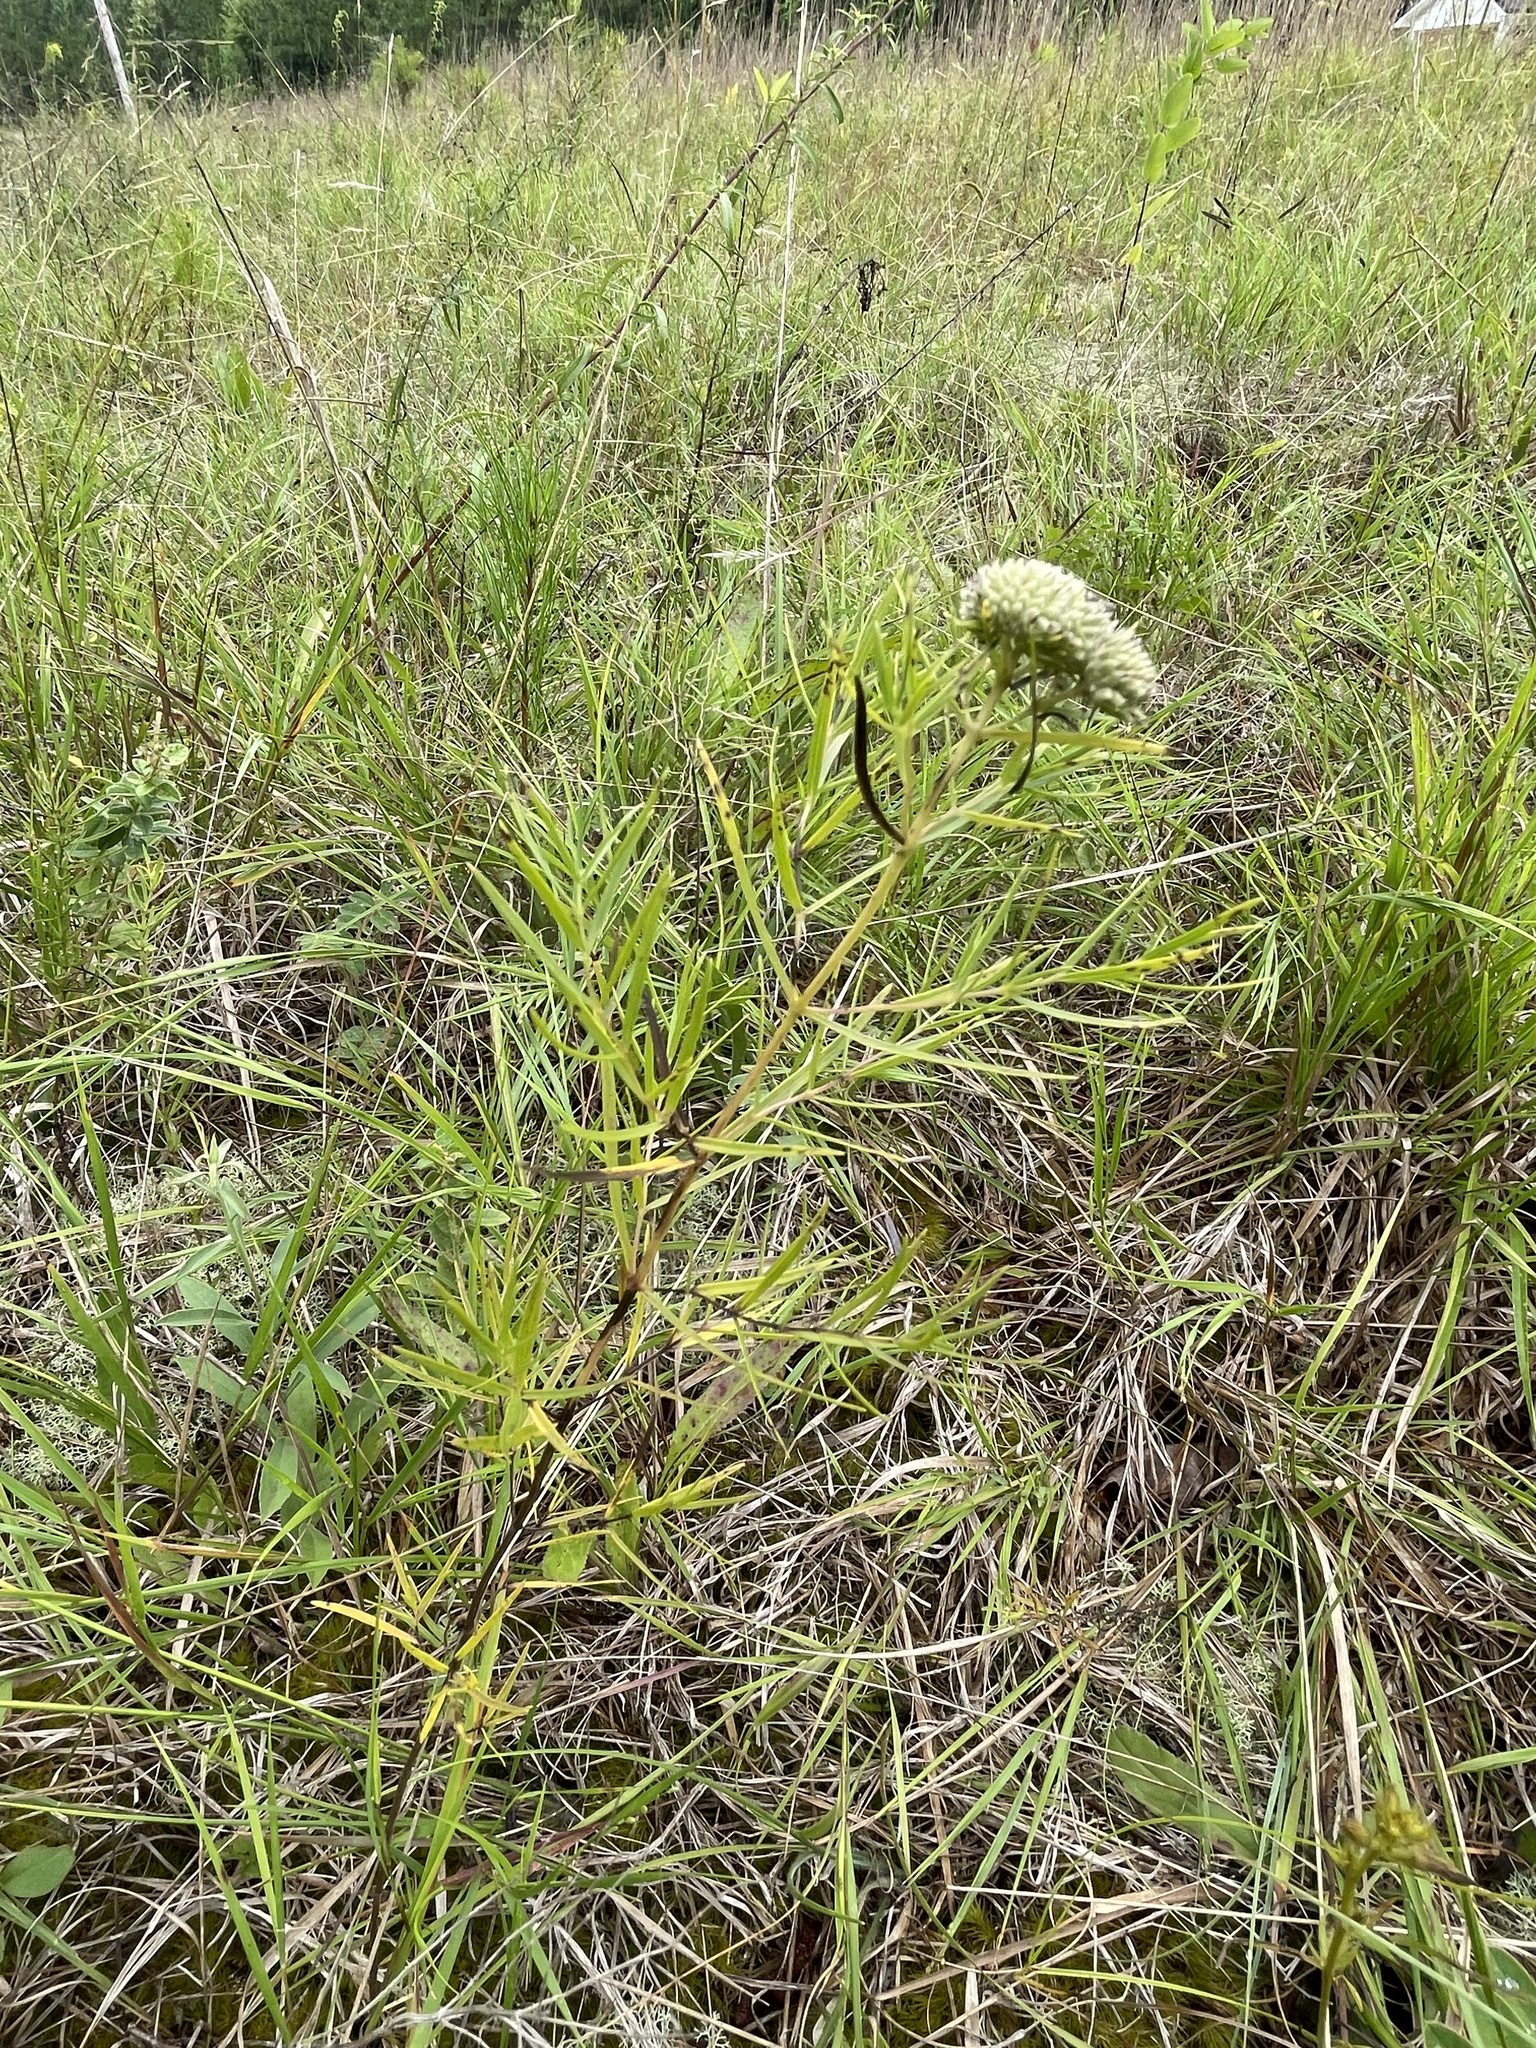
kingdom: Plantae
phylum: Tracheophyta
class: Magnoliopsida
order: Lamiales
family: Lamiaceae
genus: Pycnanthemum
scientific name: Pycnanthemum tenuifolium
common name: Narrow-leaf mountain-mint
